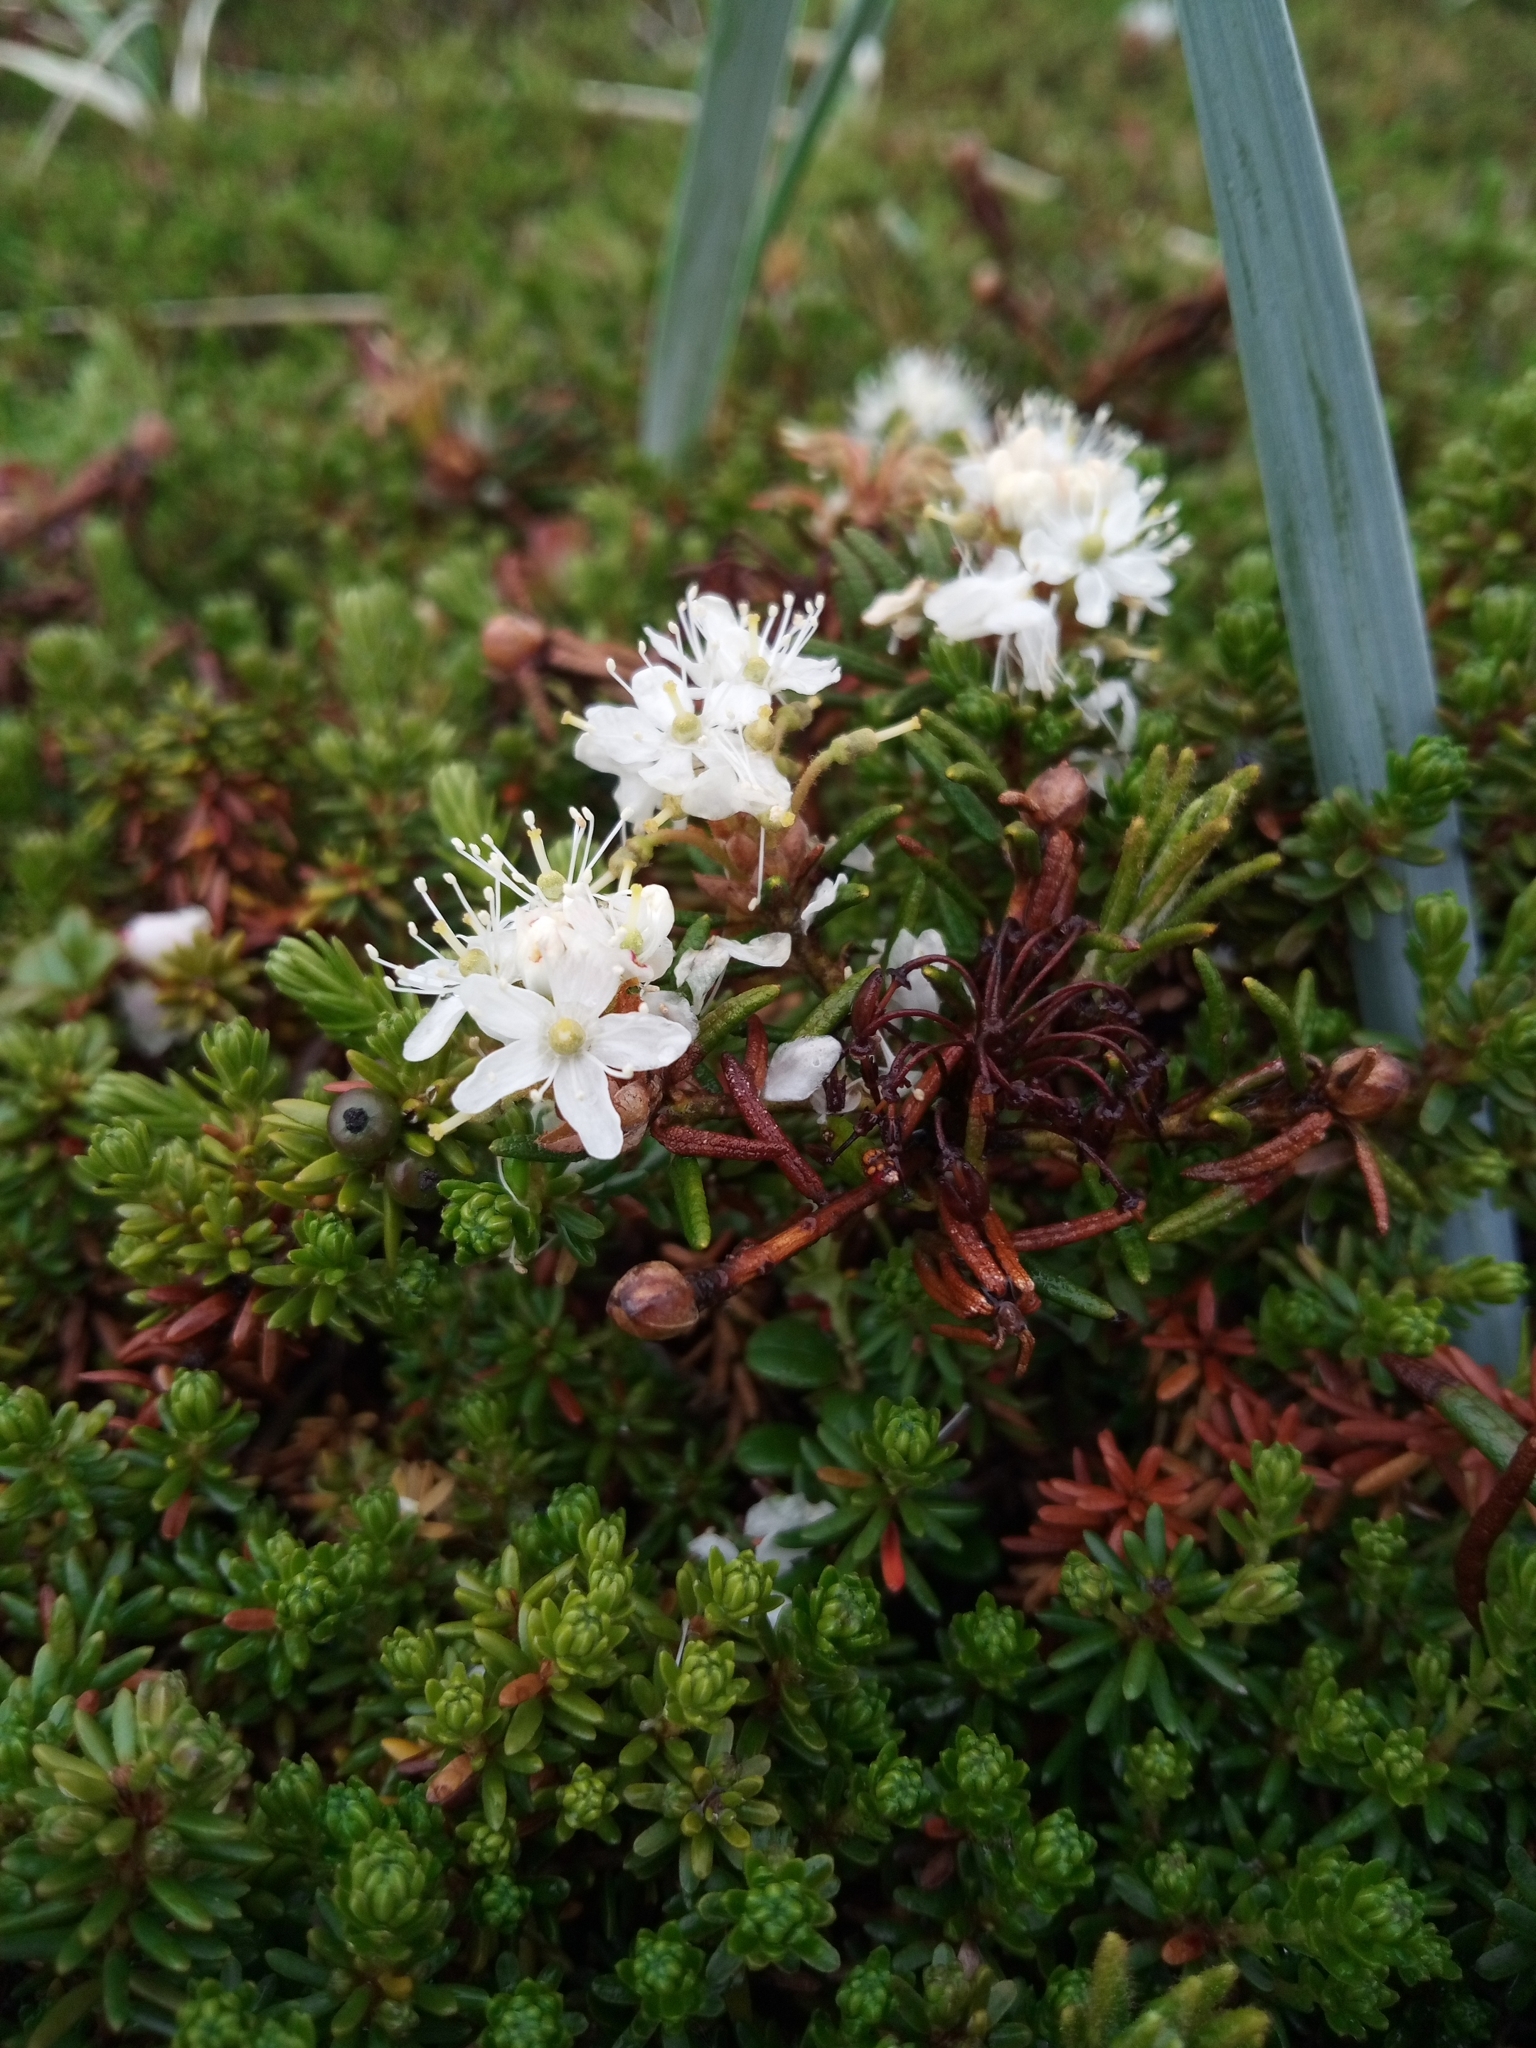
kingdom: Plantae
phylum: Tracheophyta
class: Magnoliopsida
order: Ericales
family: Ericaceae
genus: Rhododendron
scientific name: Rhododendron tomentosum
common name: Marsh labrador tea
